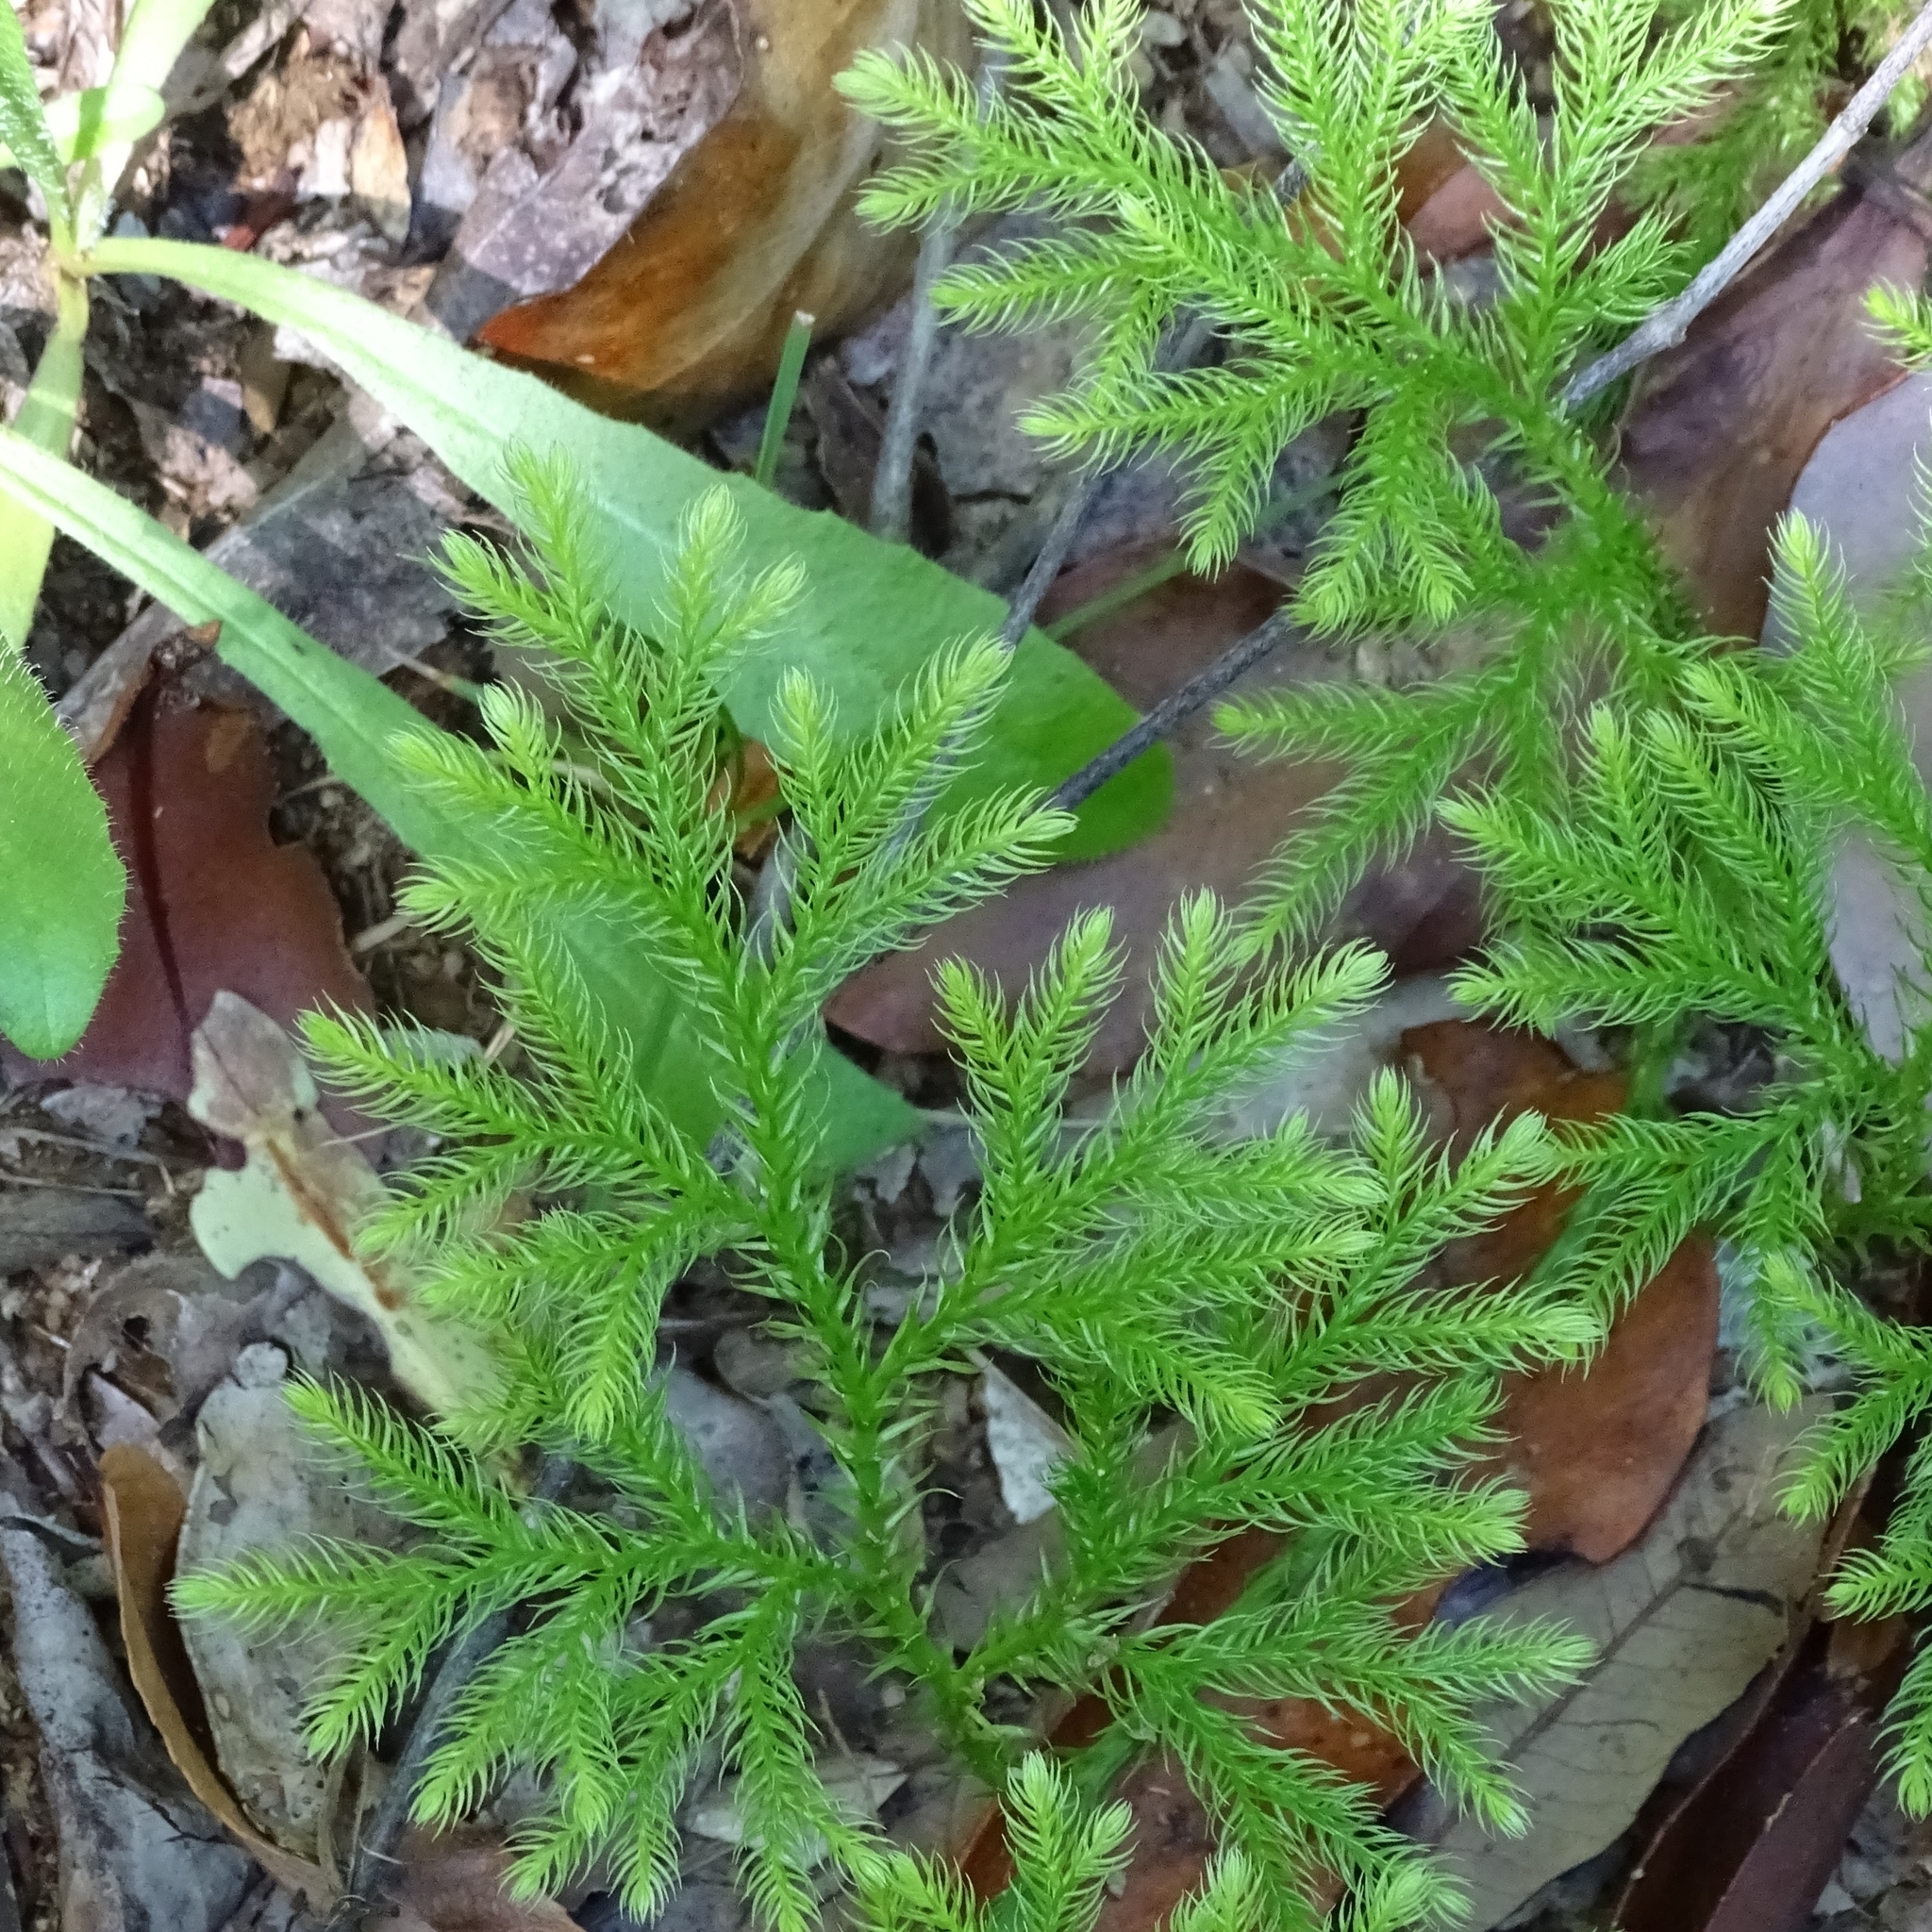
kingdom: Plantae
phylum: Tracheophyta
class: Lycopodiopsida
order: Lycopodiales
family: Lycopodiaceae
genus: Austrolycopodium
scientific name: Austrolycopodium paniculatum
